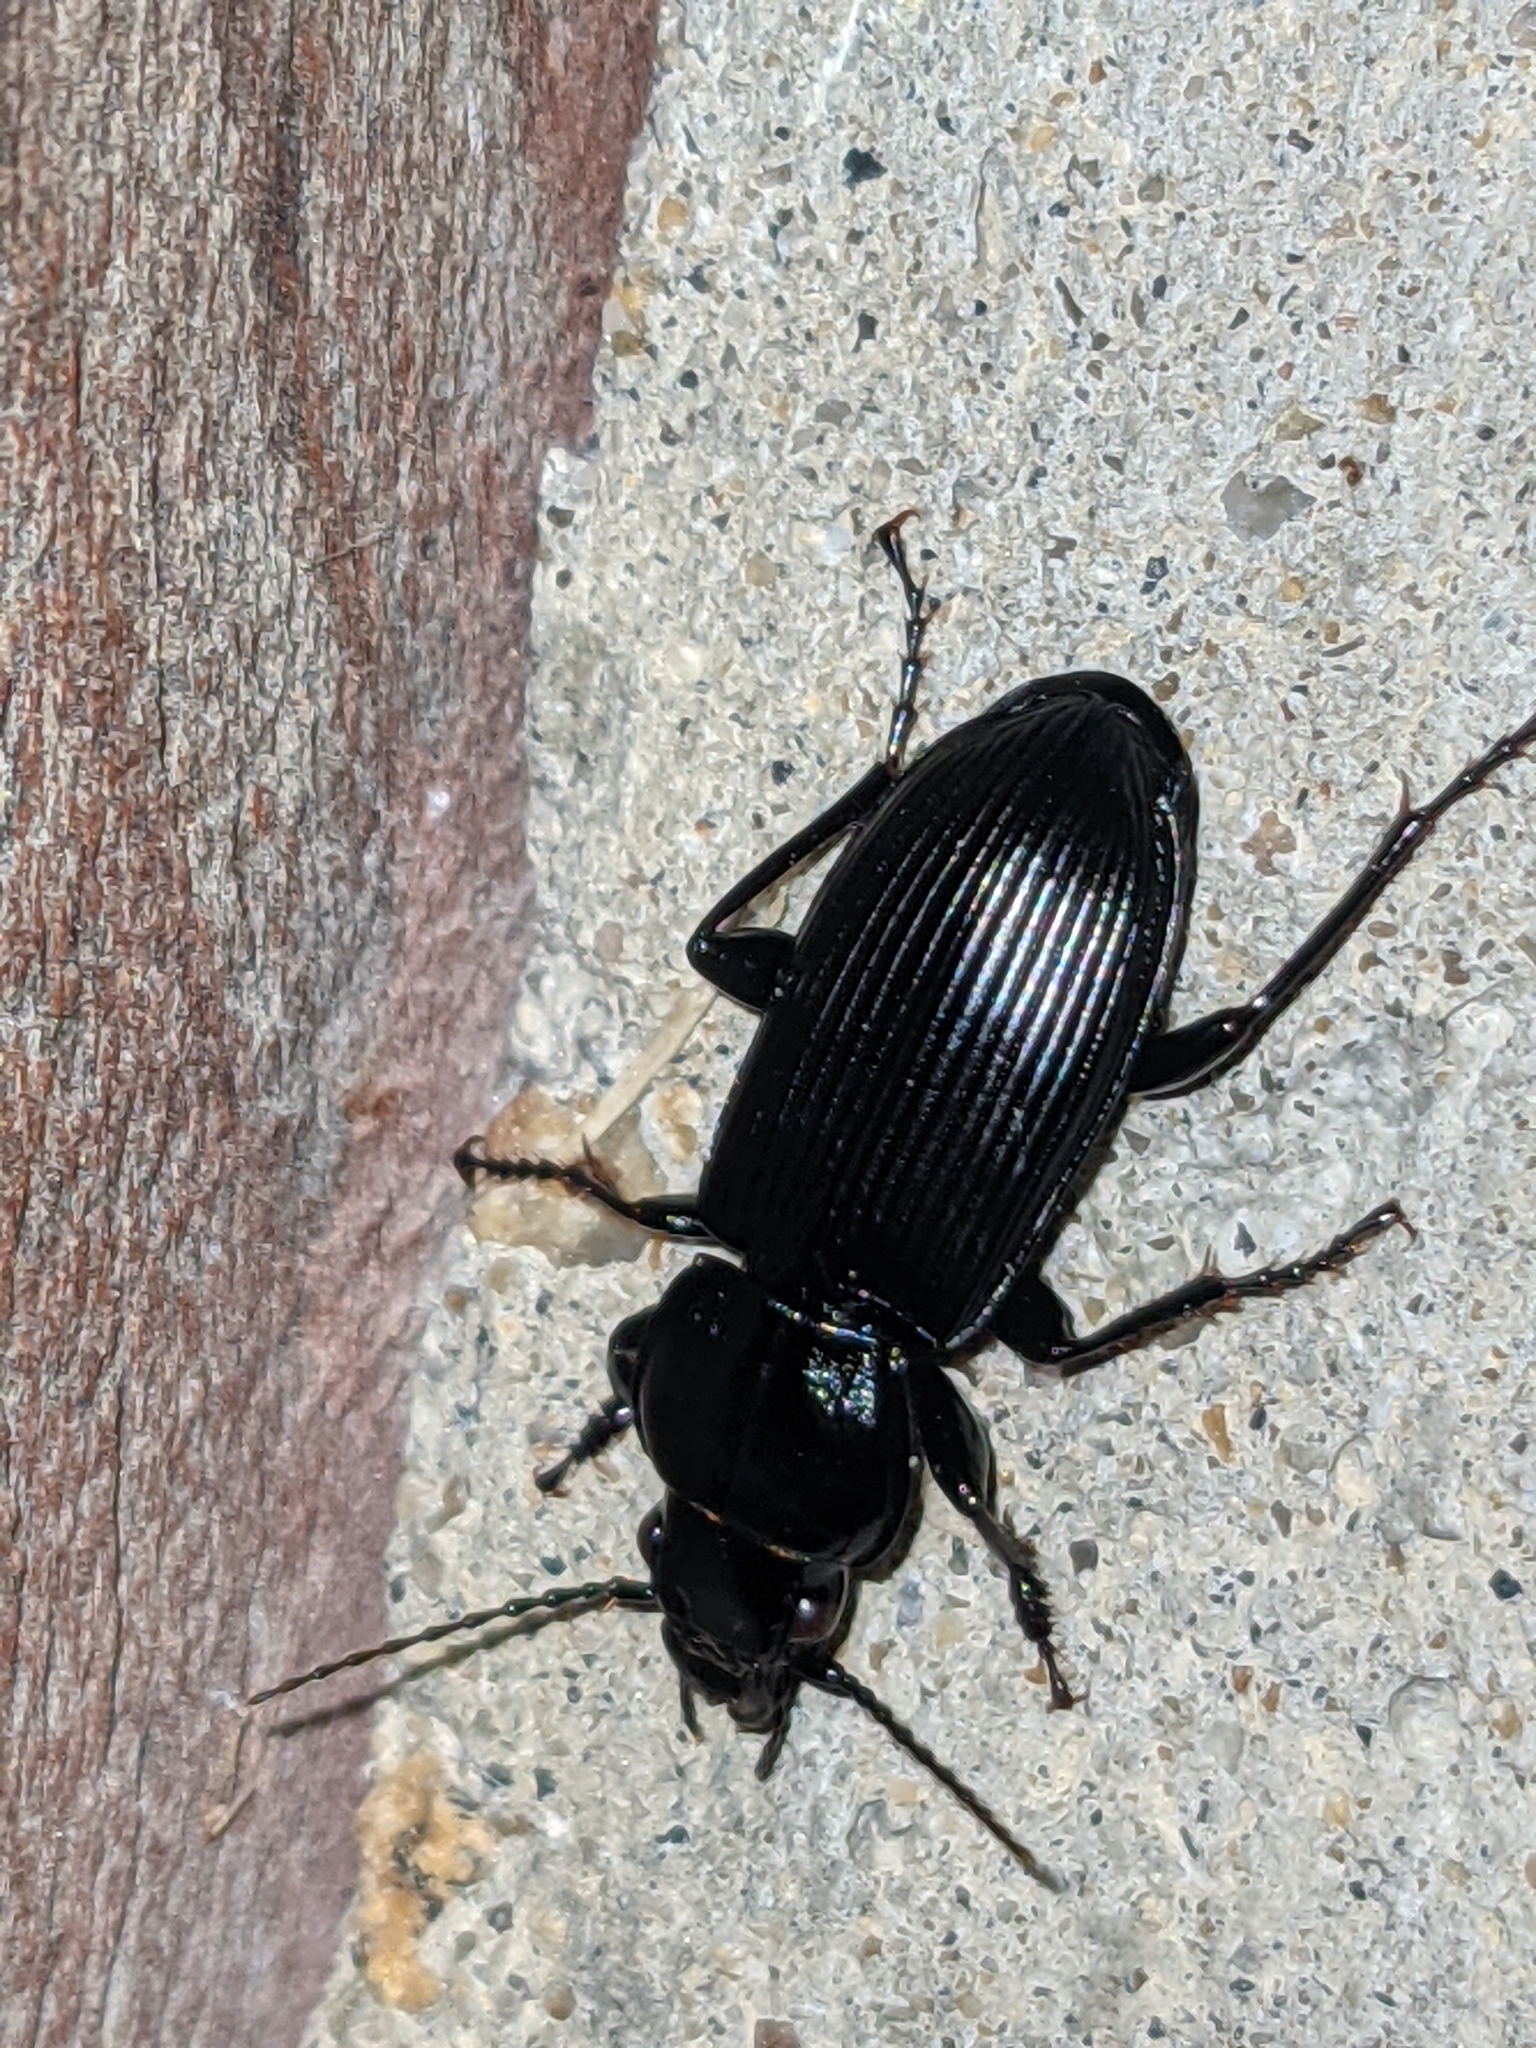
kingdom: Animalia
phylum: Arthropoda
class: Insecta
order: Coleoptera
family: Carabidae
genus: Pterostichus
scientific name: Pterostichus melanarius
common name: European dark harp ground beetle
